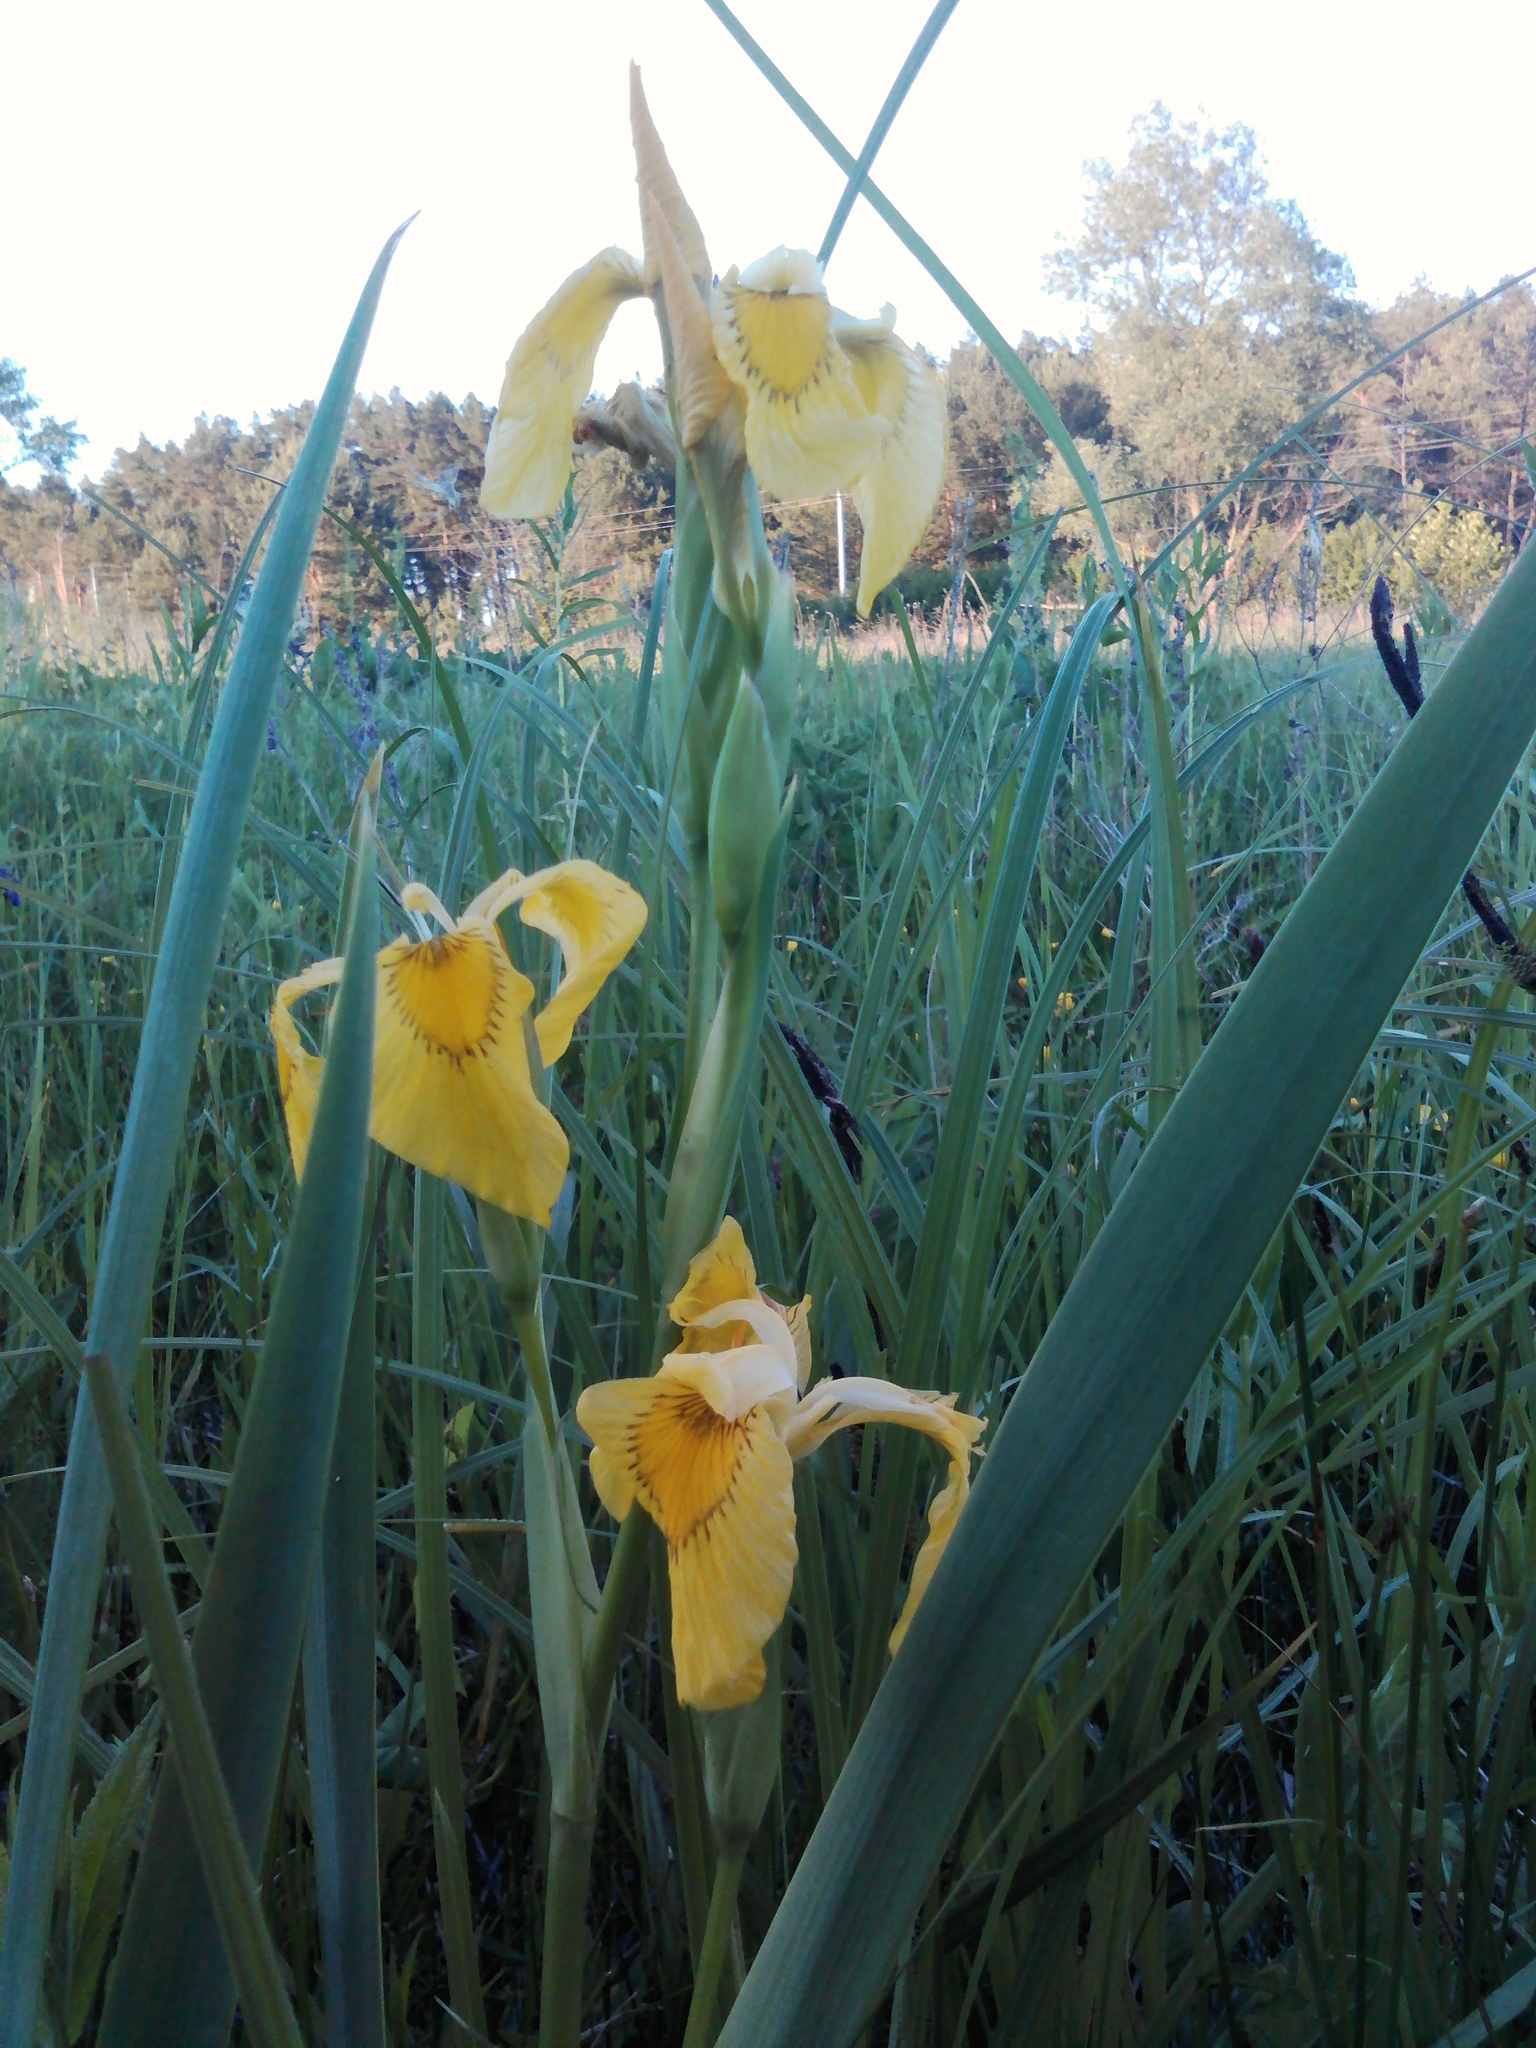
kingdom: Plantae
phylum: Tracheophyta
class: Liliopsida
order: Asparagales
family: Iridaceae
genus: Iris
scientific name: Iris pseudacorus
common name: Yellow flag
